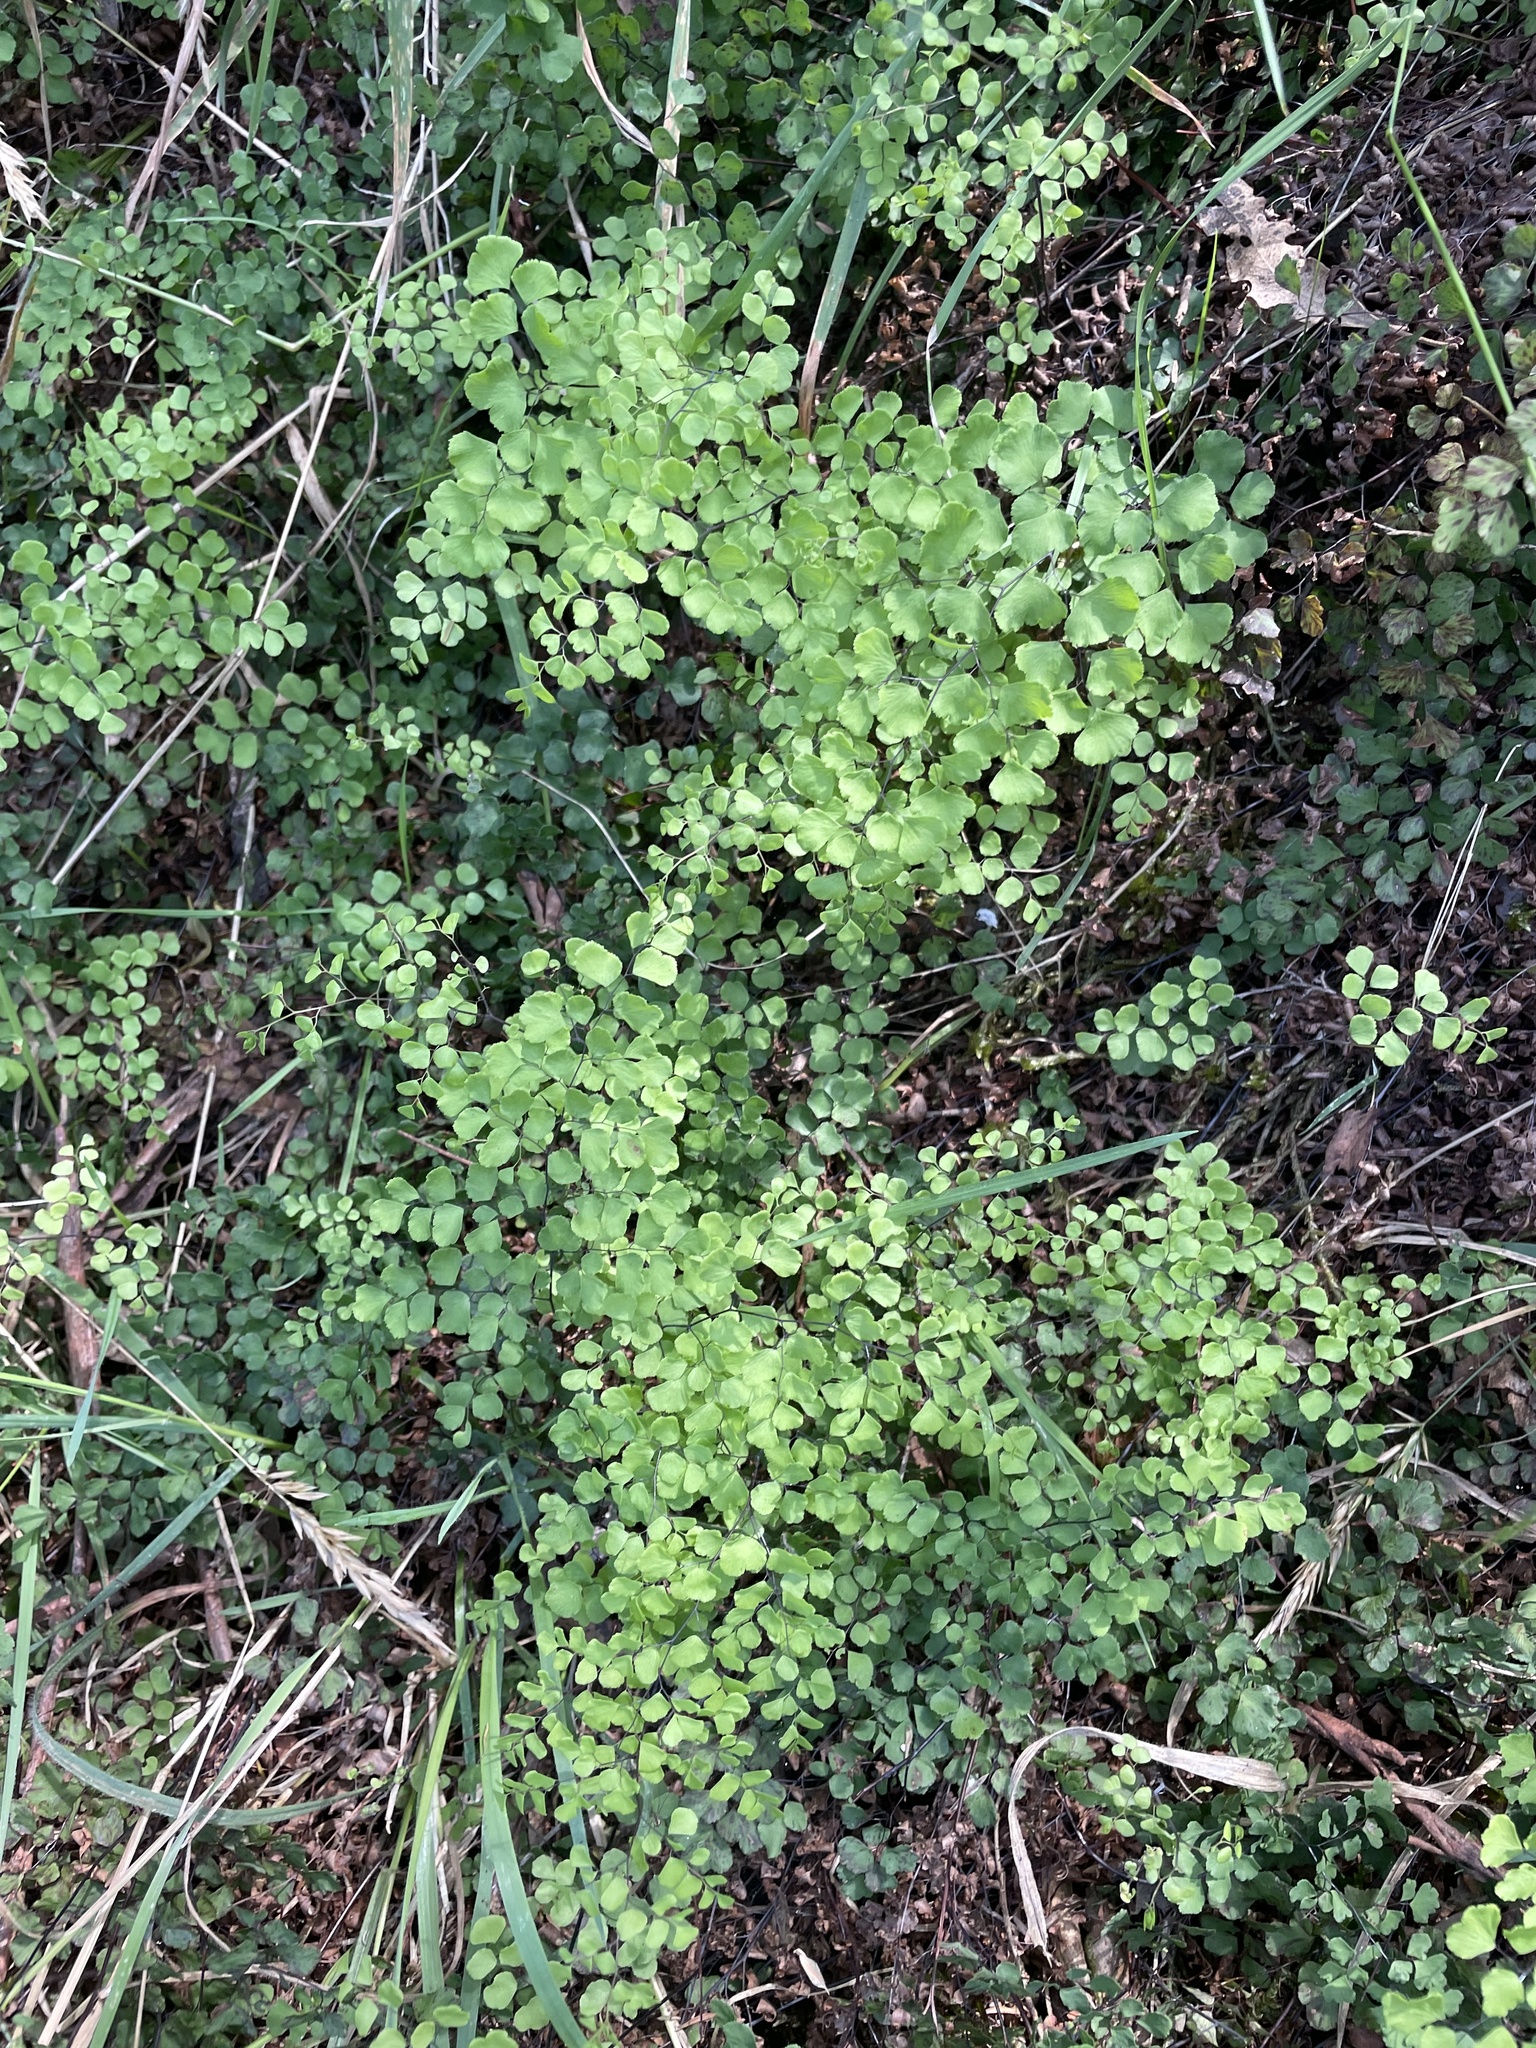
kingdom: Plantae
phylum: Tracheophyta
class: Polypodiopsida
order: Polypodiales
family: Pteridaceae
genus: Adiantum
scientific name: Adiantum aethiopicum
